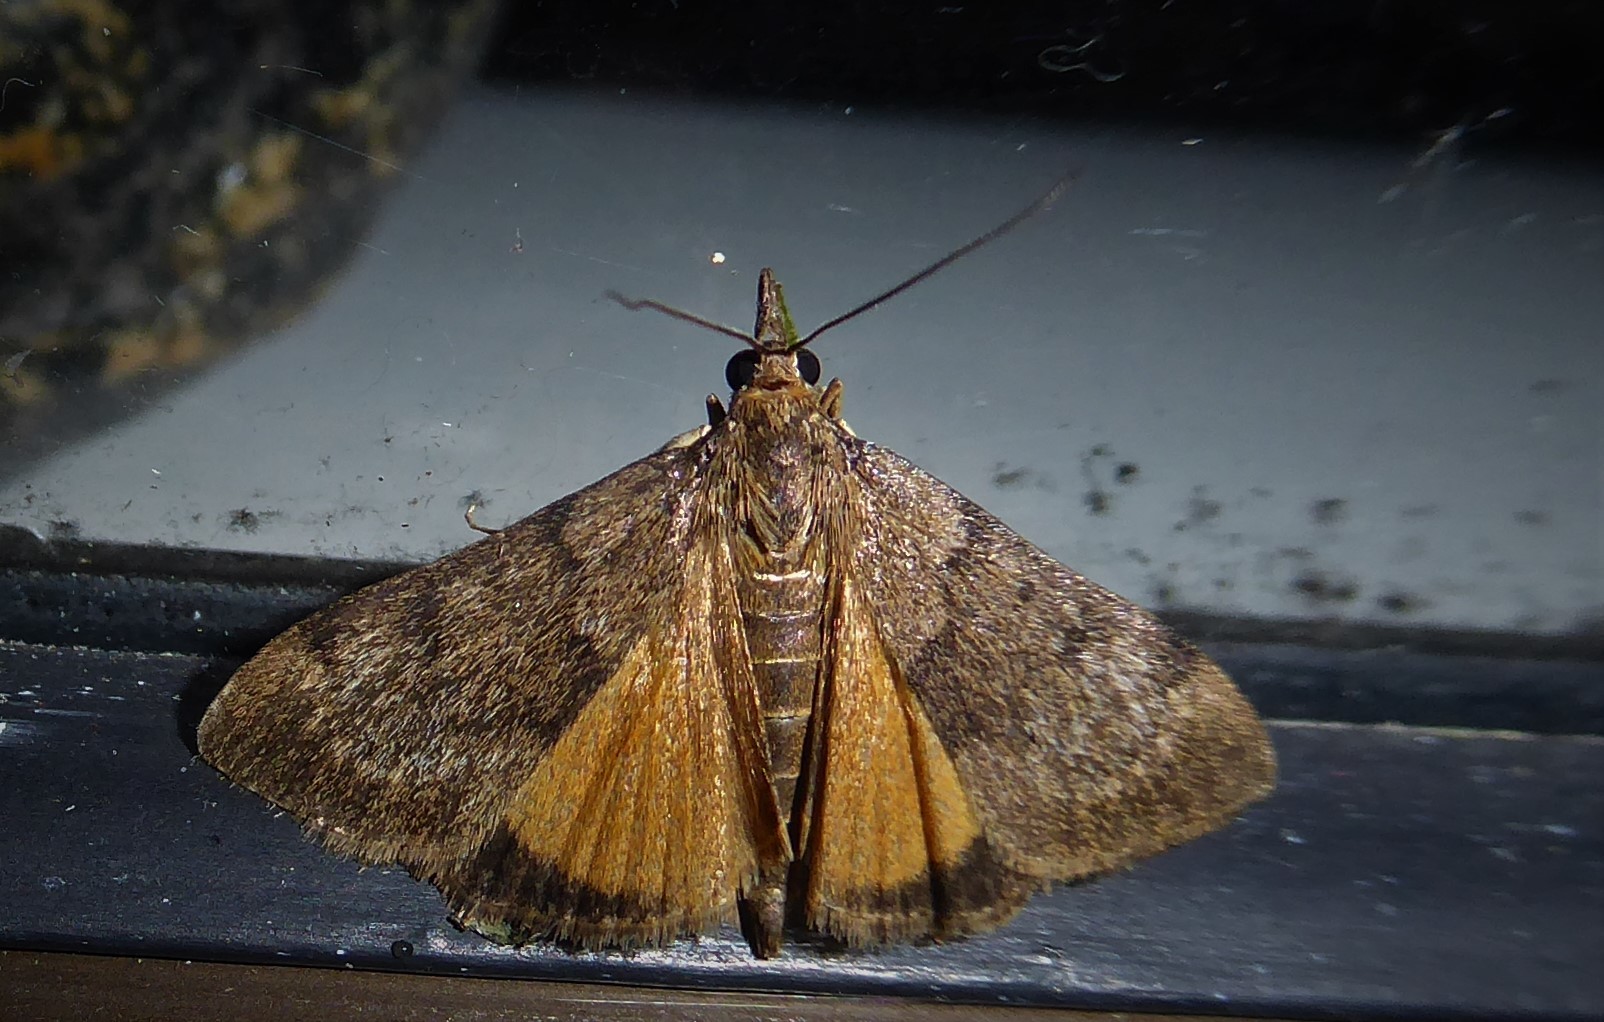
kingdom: Animalia
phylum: Arthropoda
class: Insecta
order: Lepidoptera
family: Crambidae
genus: Uresiphita
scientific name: Uresiphita
